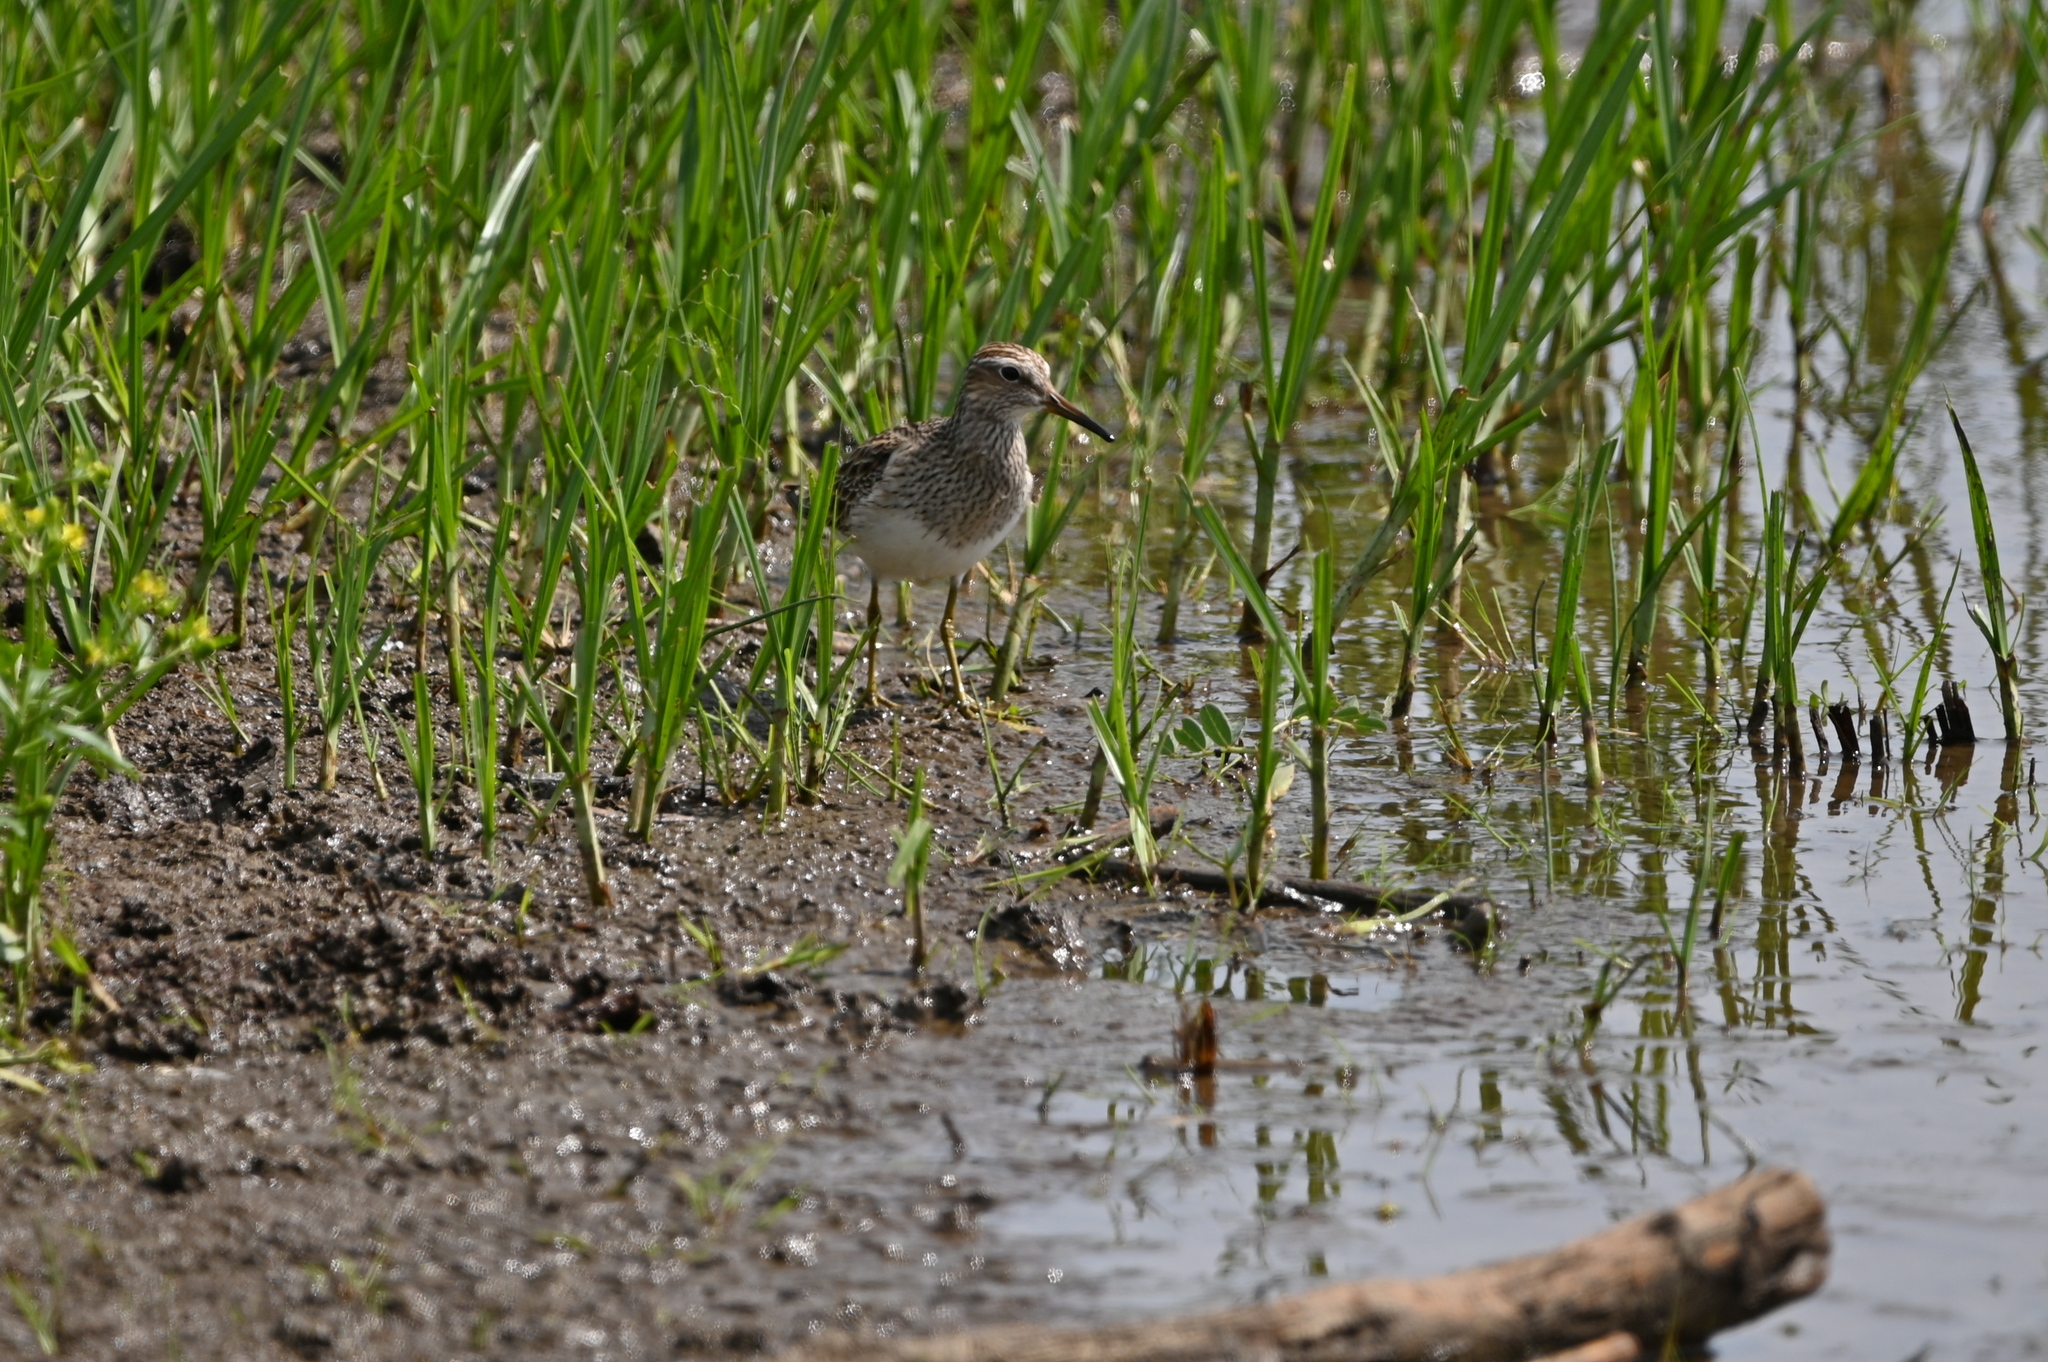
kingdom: Animalia
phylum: Chordata
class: Aves
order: Charadriiformes
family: Scolopacidae
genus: Calidris
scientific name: Calidris melanotos
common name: Pectoral sandpiper
